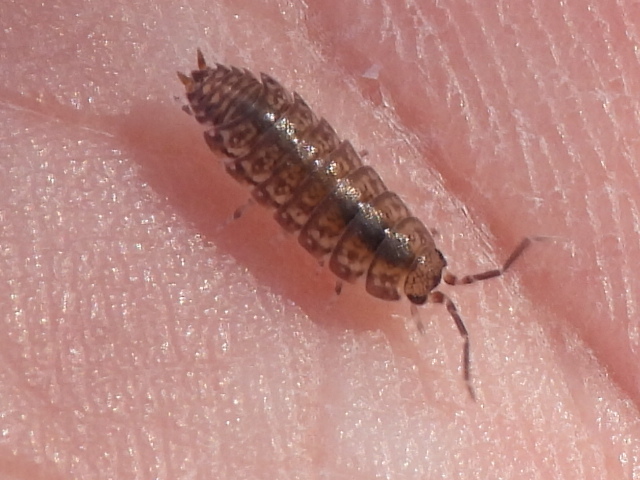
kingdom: Animalia
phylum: Arthropoda
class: Malacostraca
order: Isopoda
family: Porcellionidae
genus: Porcellionides
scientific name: Porcellionides virgatus
